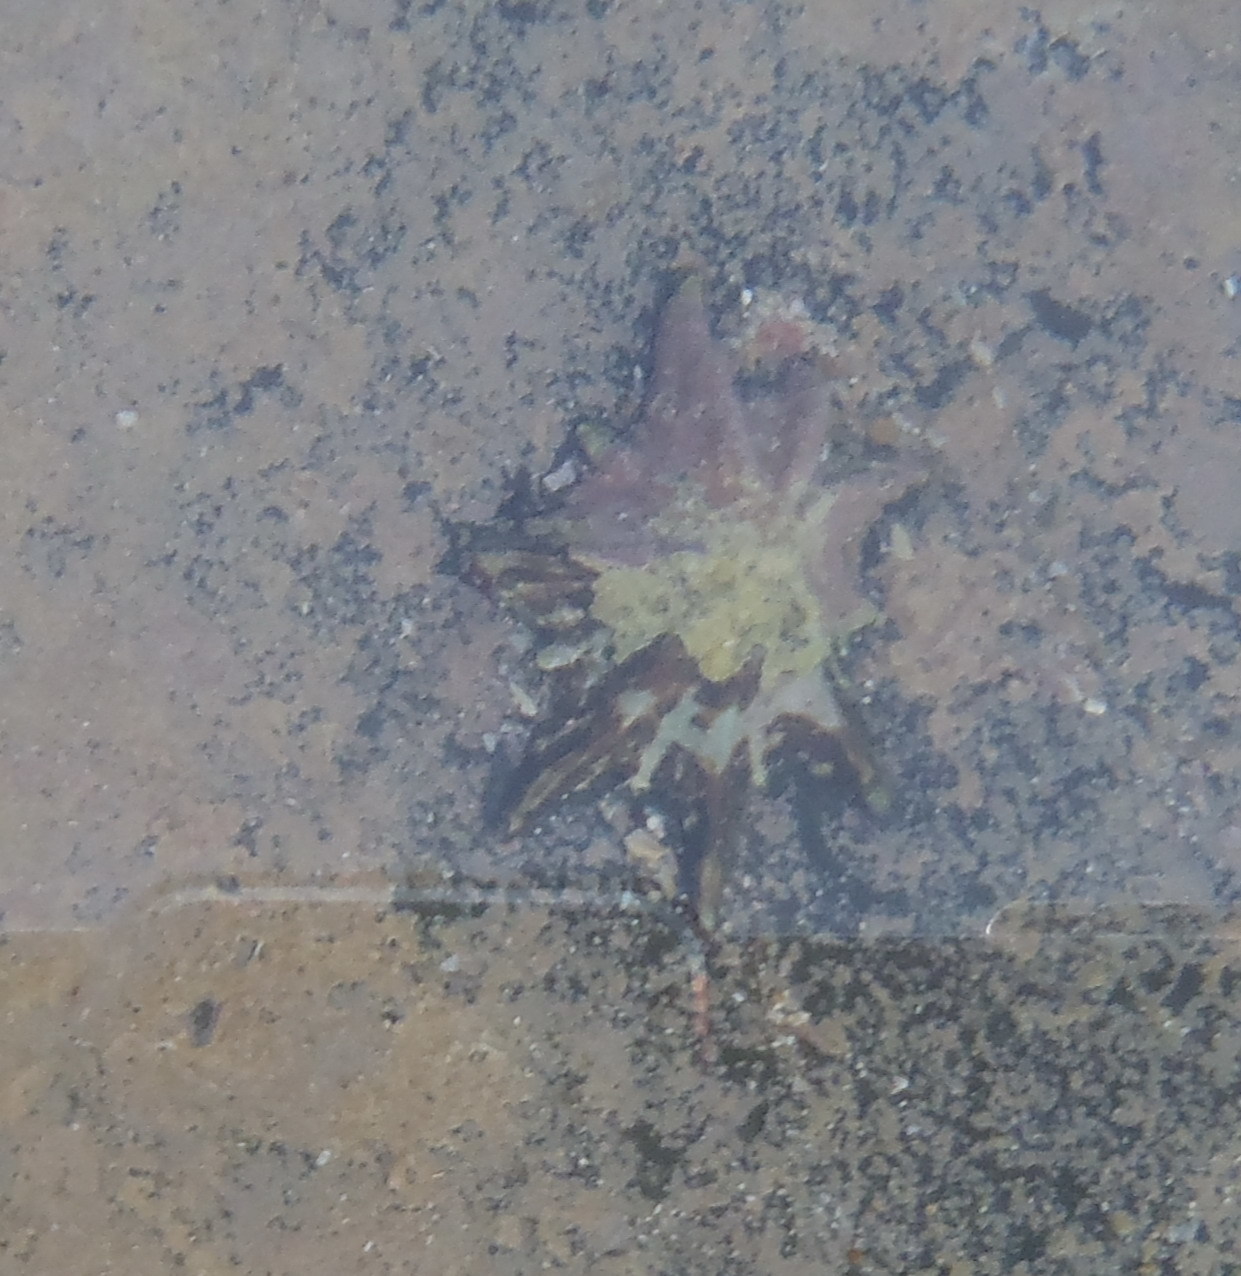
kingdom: Animalia
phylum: Mollusca
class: Gastropoda
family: Patellidae
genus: Scutellastra
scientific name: Scutellastra longicosta
